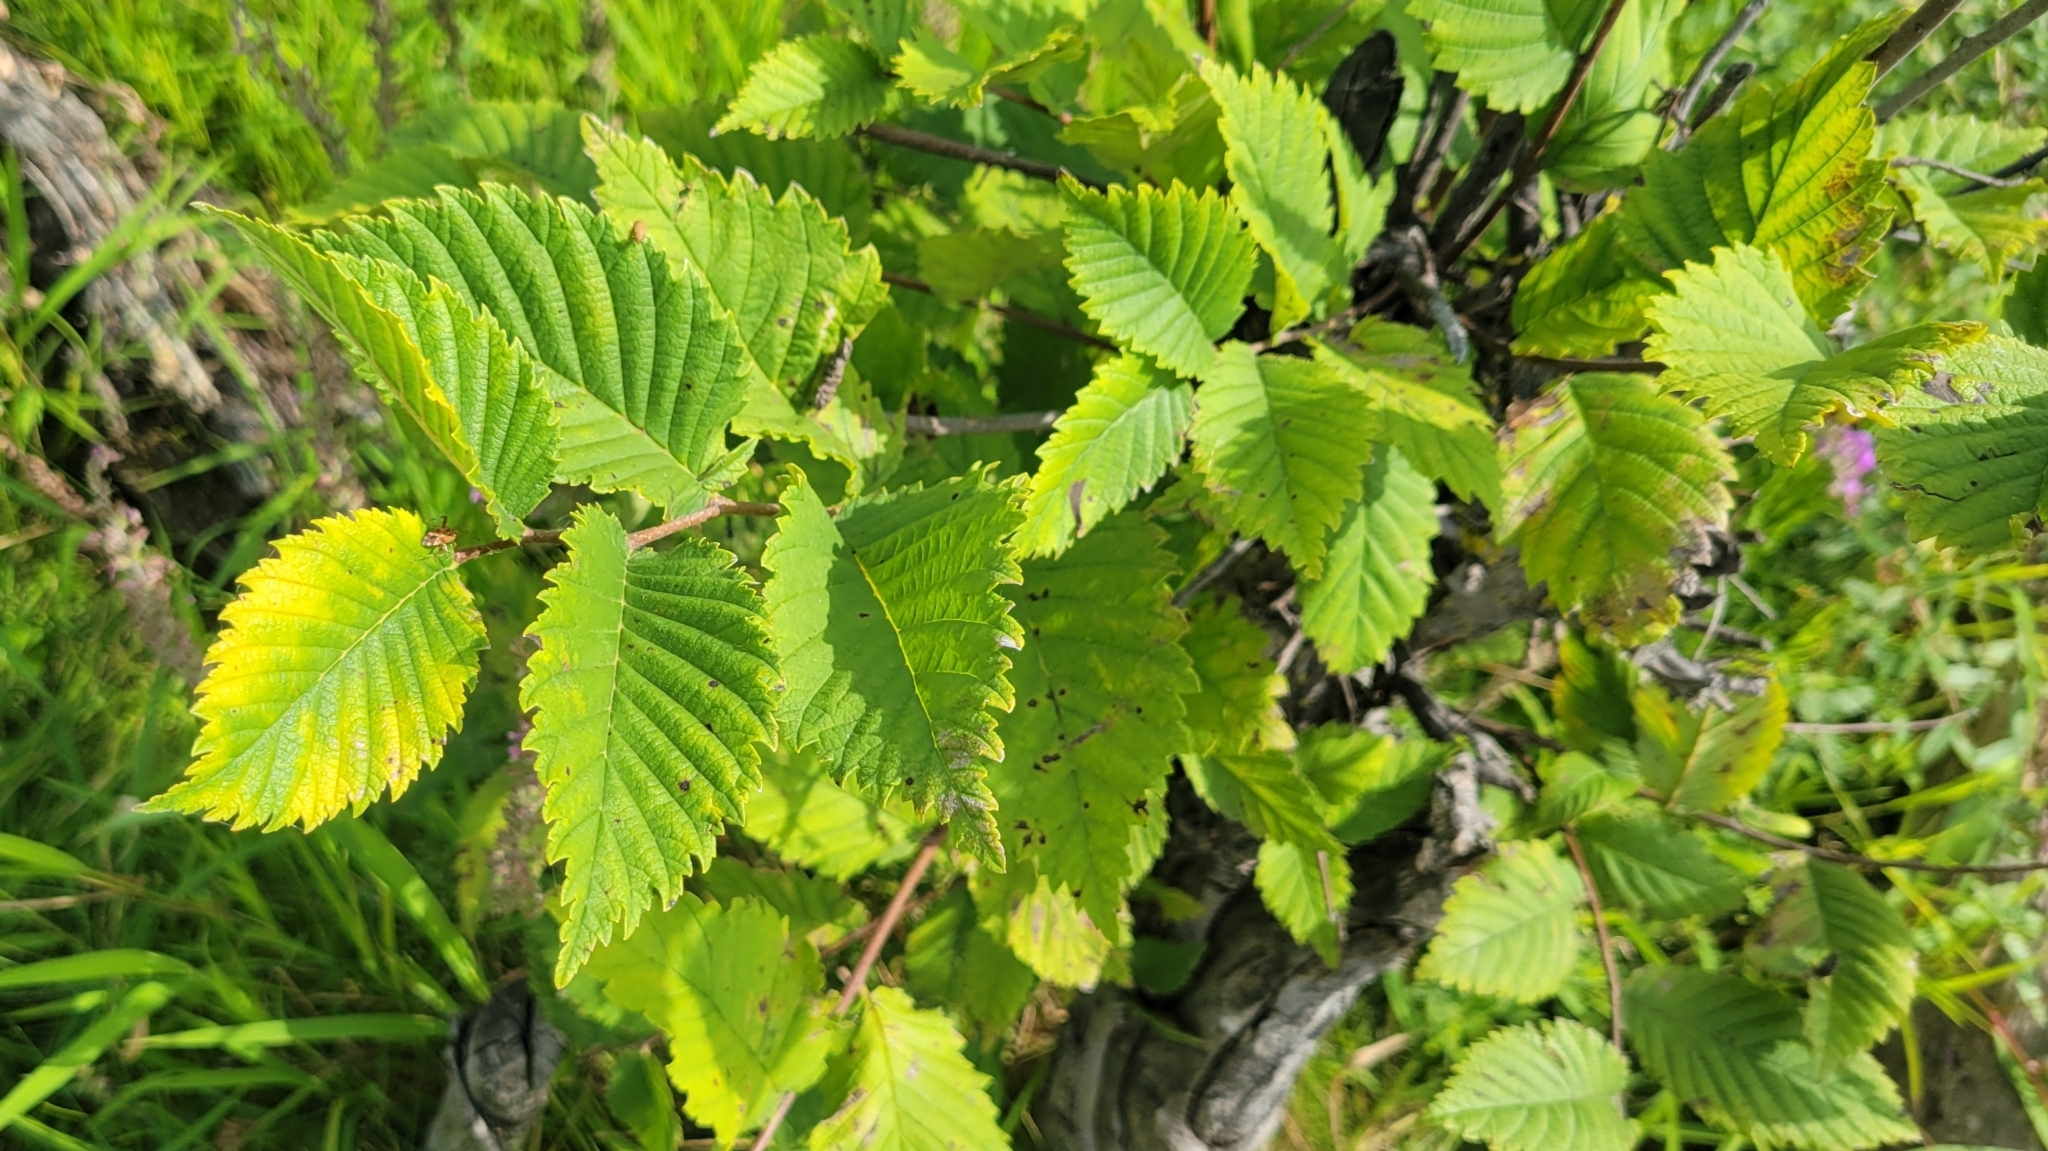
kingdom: Plantae
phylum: Tracheophyta
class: Magnoliopsida
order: Rosales
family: Ulmaceae
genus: Ulmus
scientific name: Ulmus americana
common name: American elm
